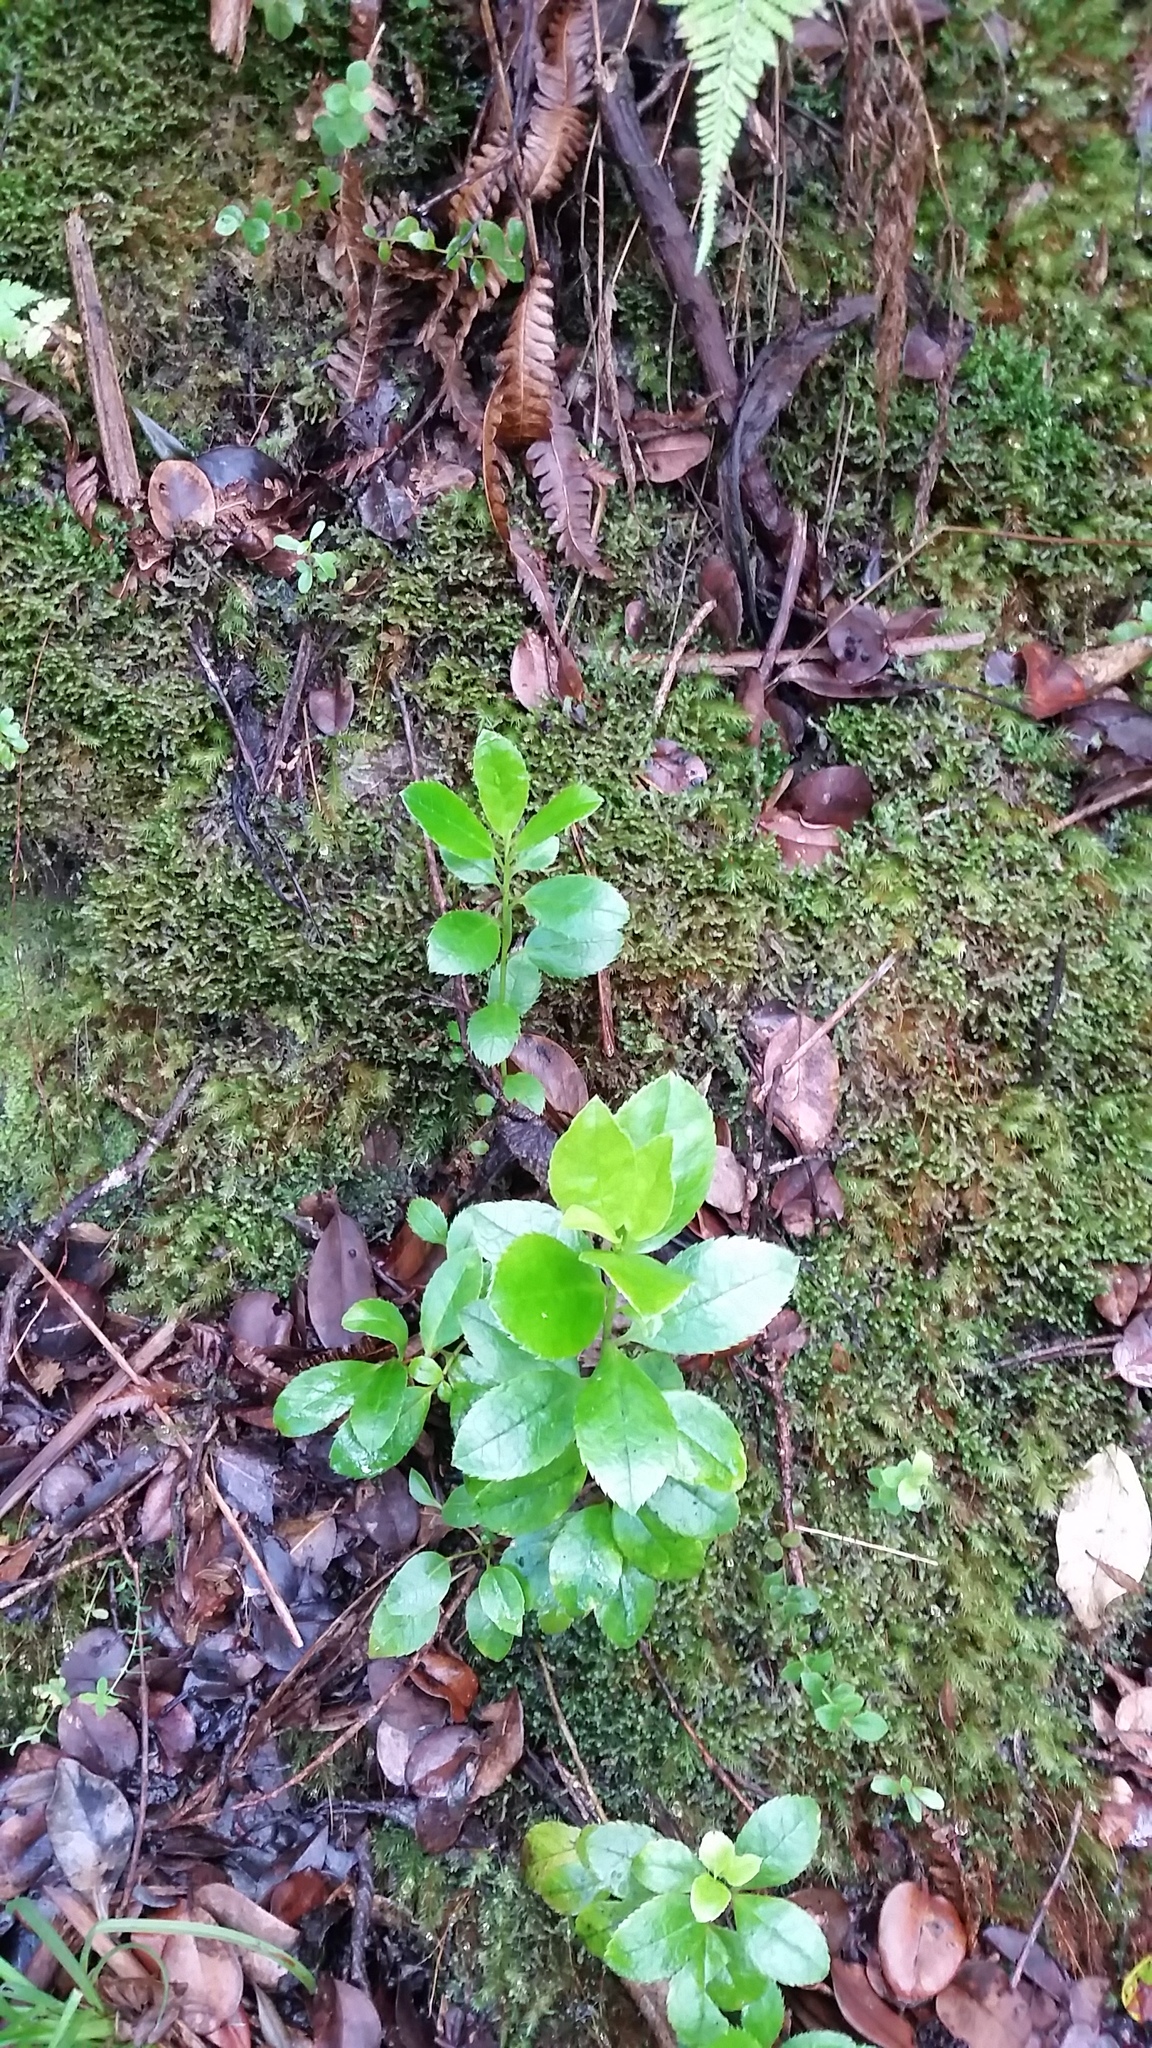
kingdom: Plantae
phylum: Tracheophyta
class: Magnoliopsida
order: Aquifoliales
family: Aquifoliaceae
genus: Ilex
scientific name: Ilex anomala
